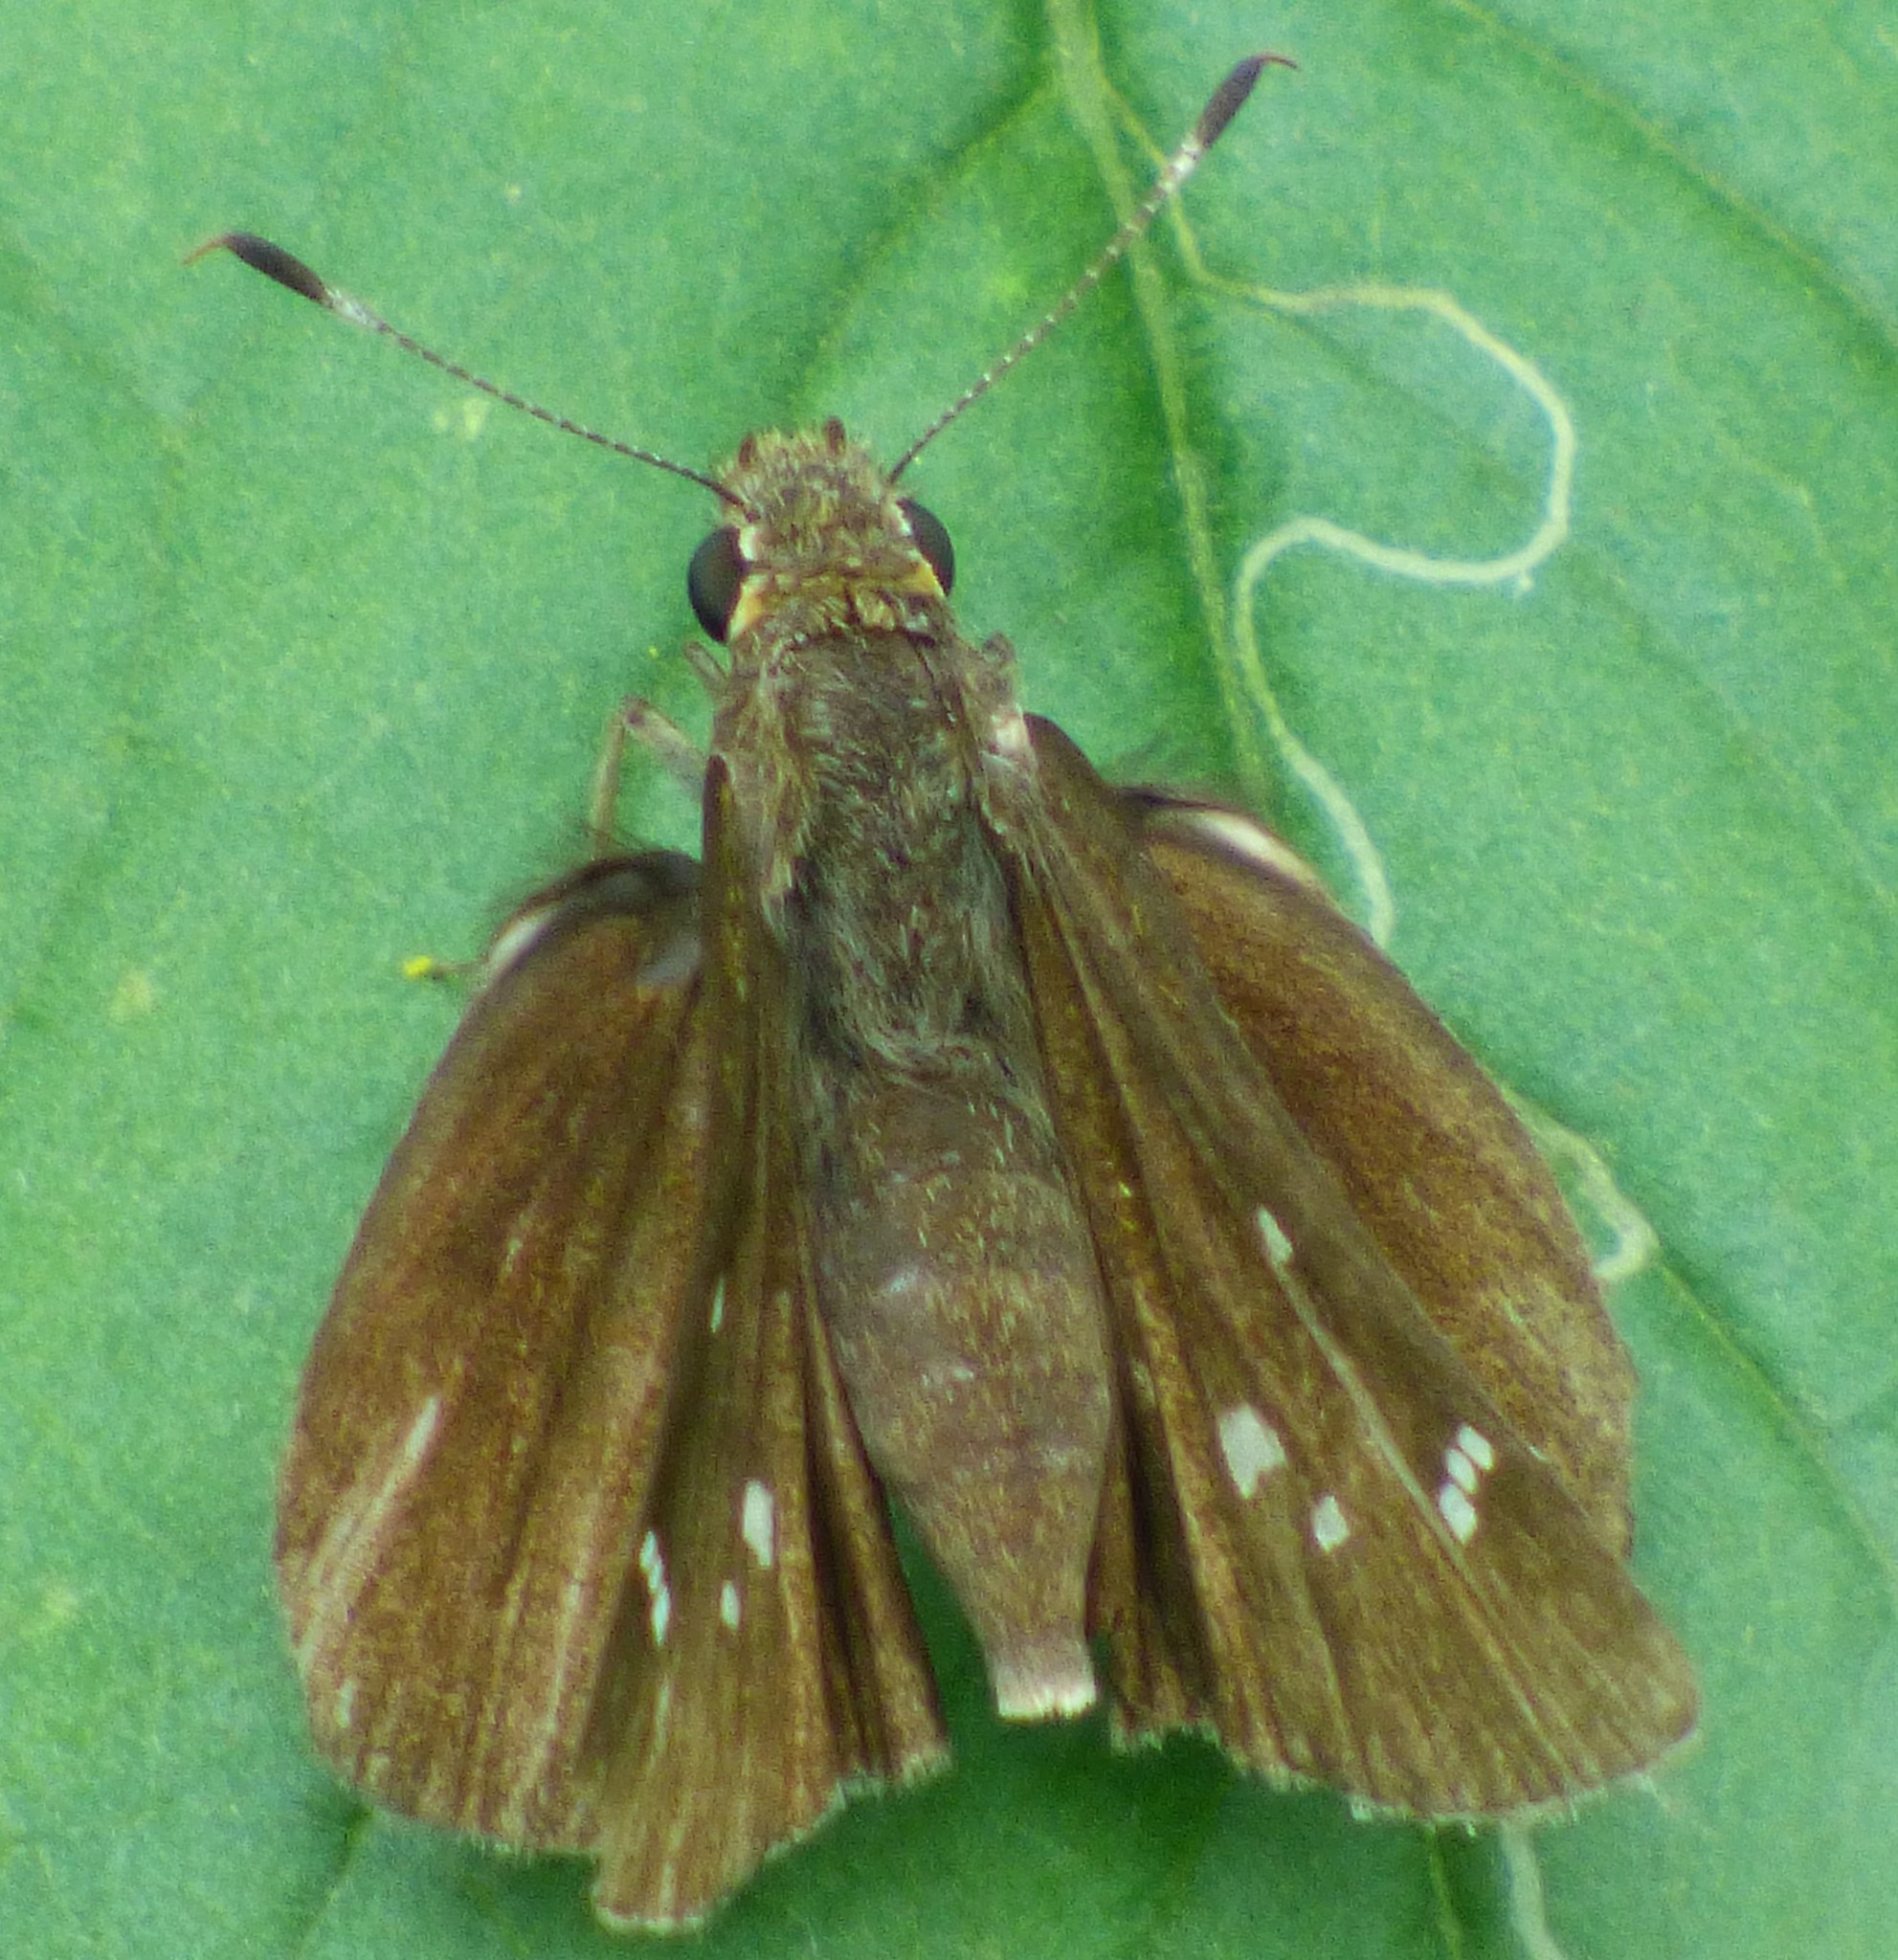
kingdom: Animalia
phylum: Arthropoda
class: Insecta
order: Lepidoptera
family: Hesperiidae
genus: Lerema
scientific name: Lerema accius
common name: Clouded skipper
